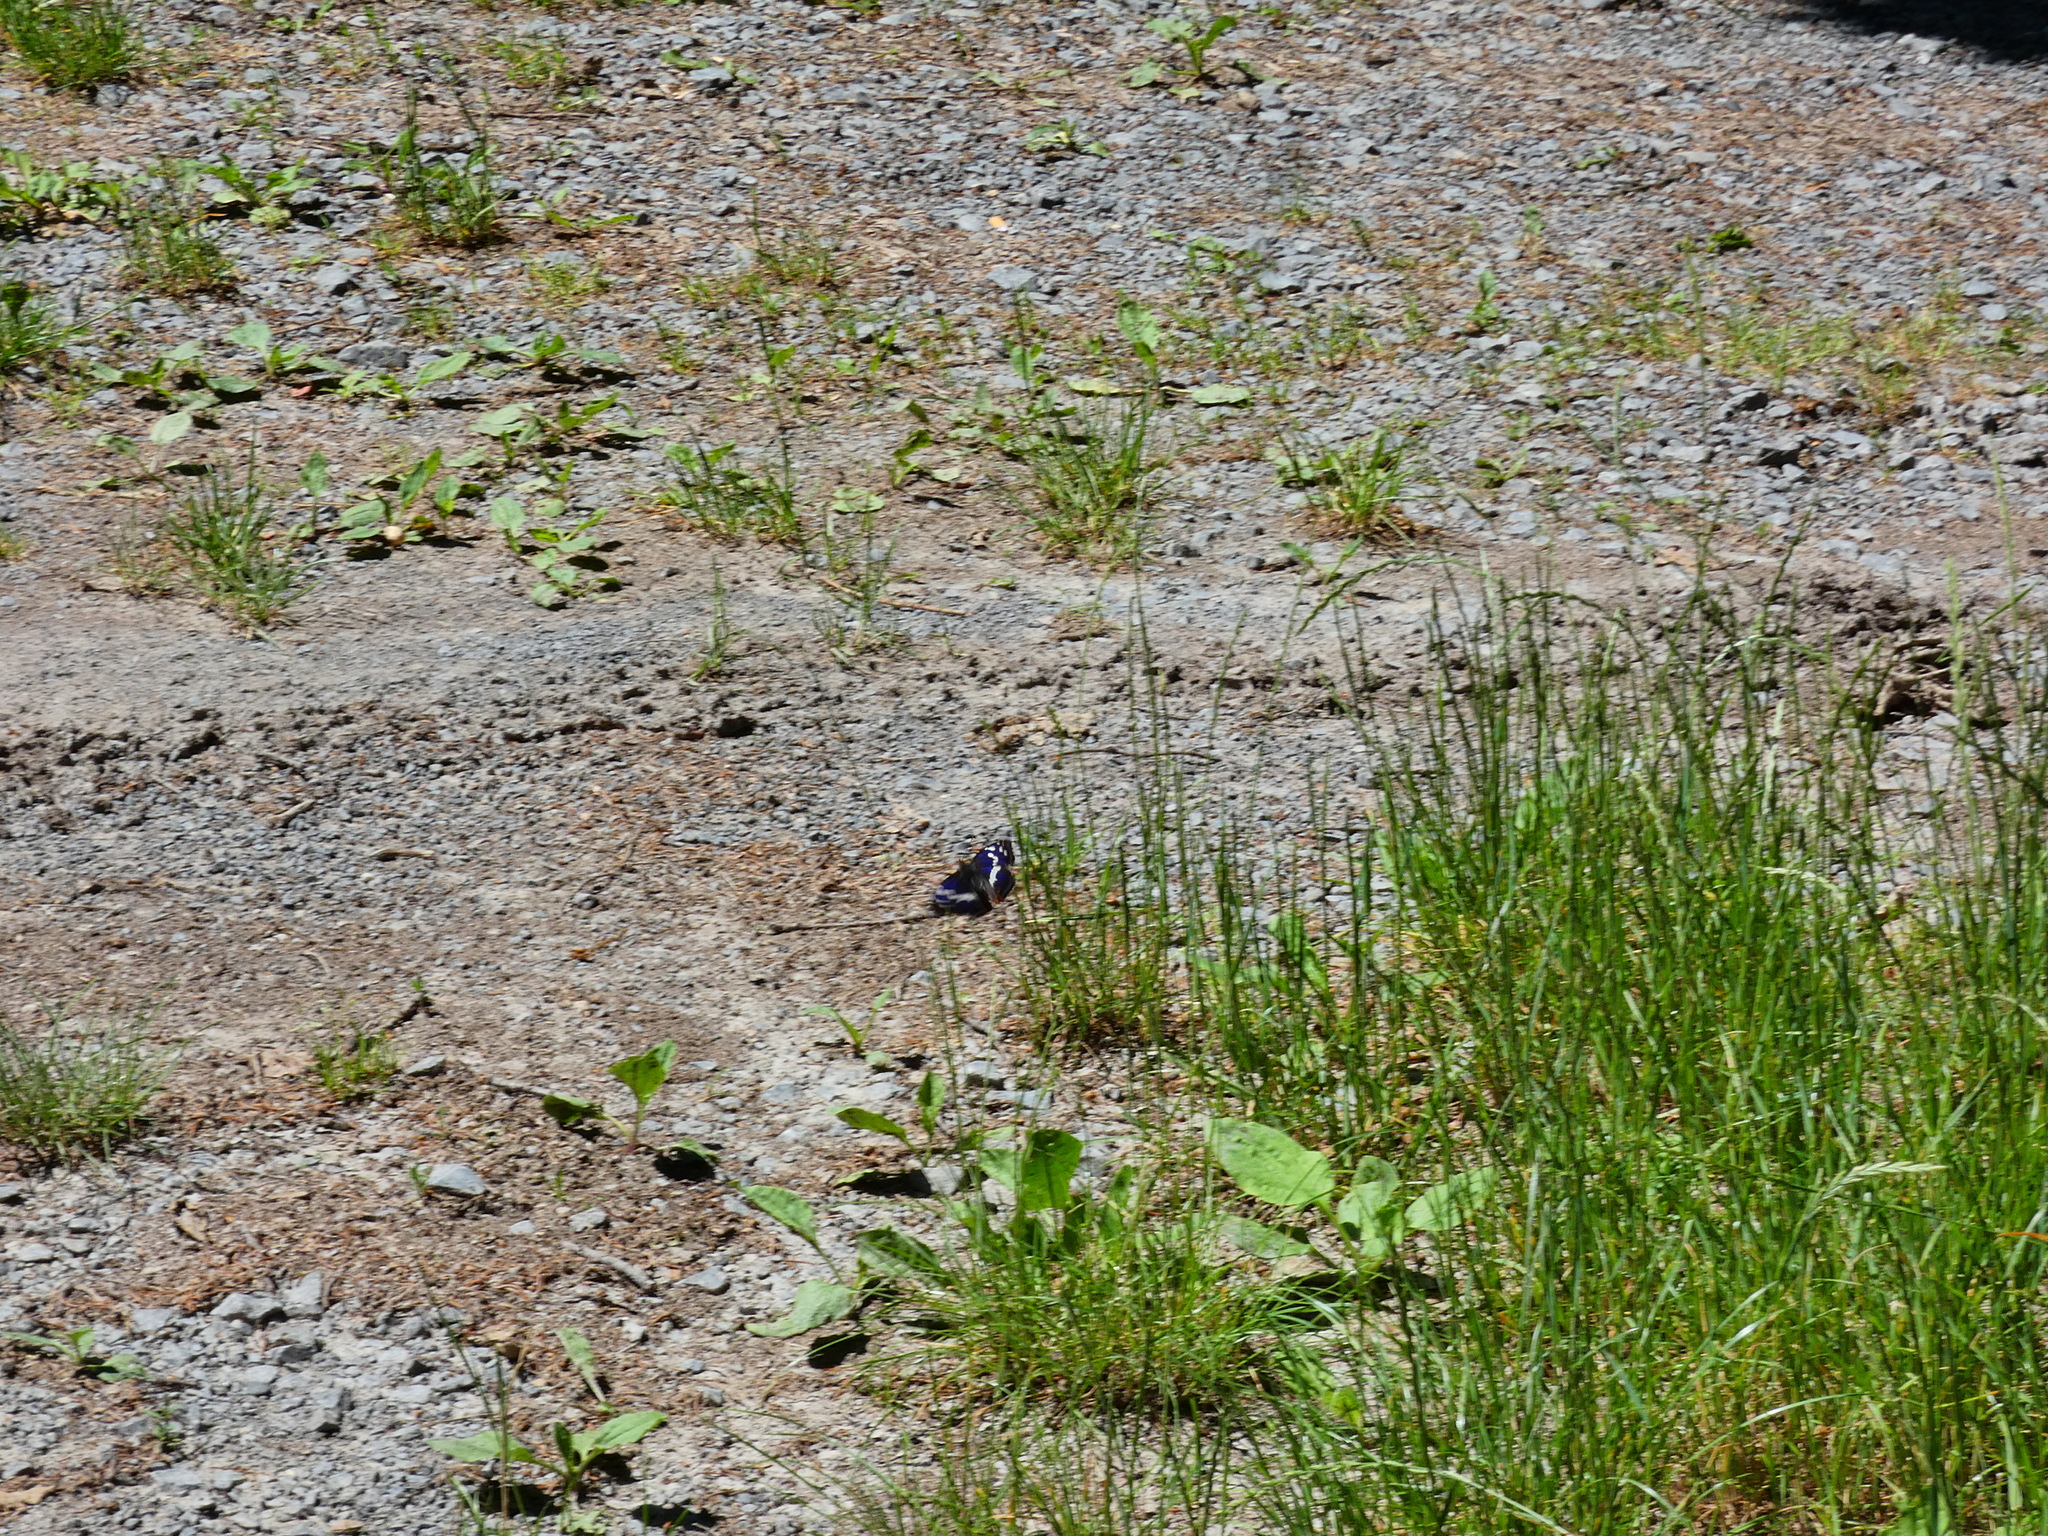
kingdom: Animalia
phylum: Arthropoda
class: Insecta
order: Lepidoptera
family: Nymphalidae
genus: Apatura
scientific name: Apatura iris
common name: Purple emperor
